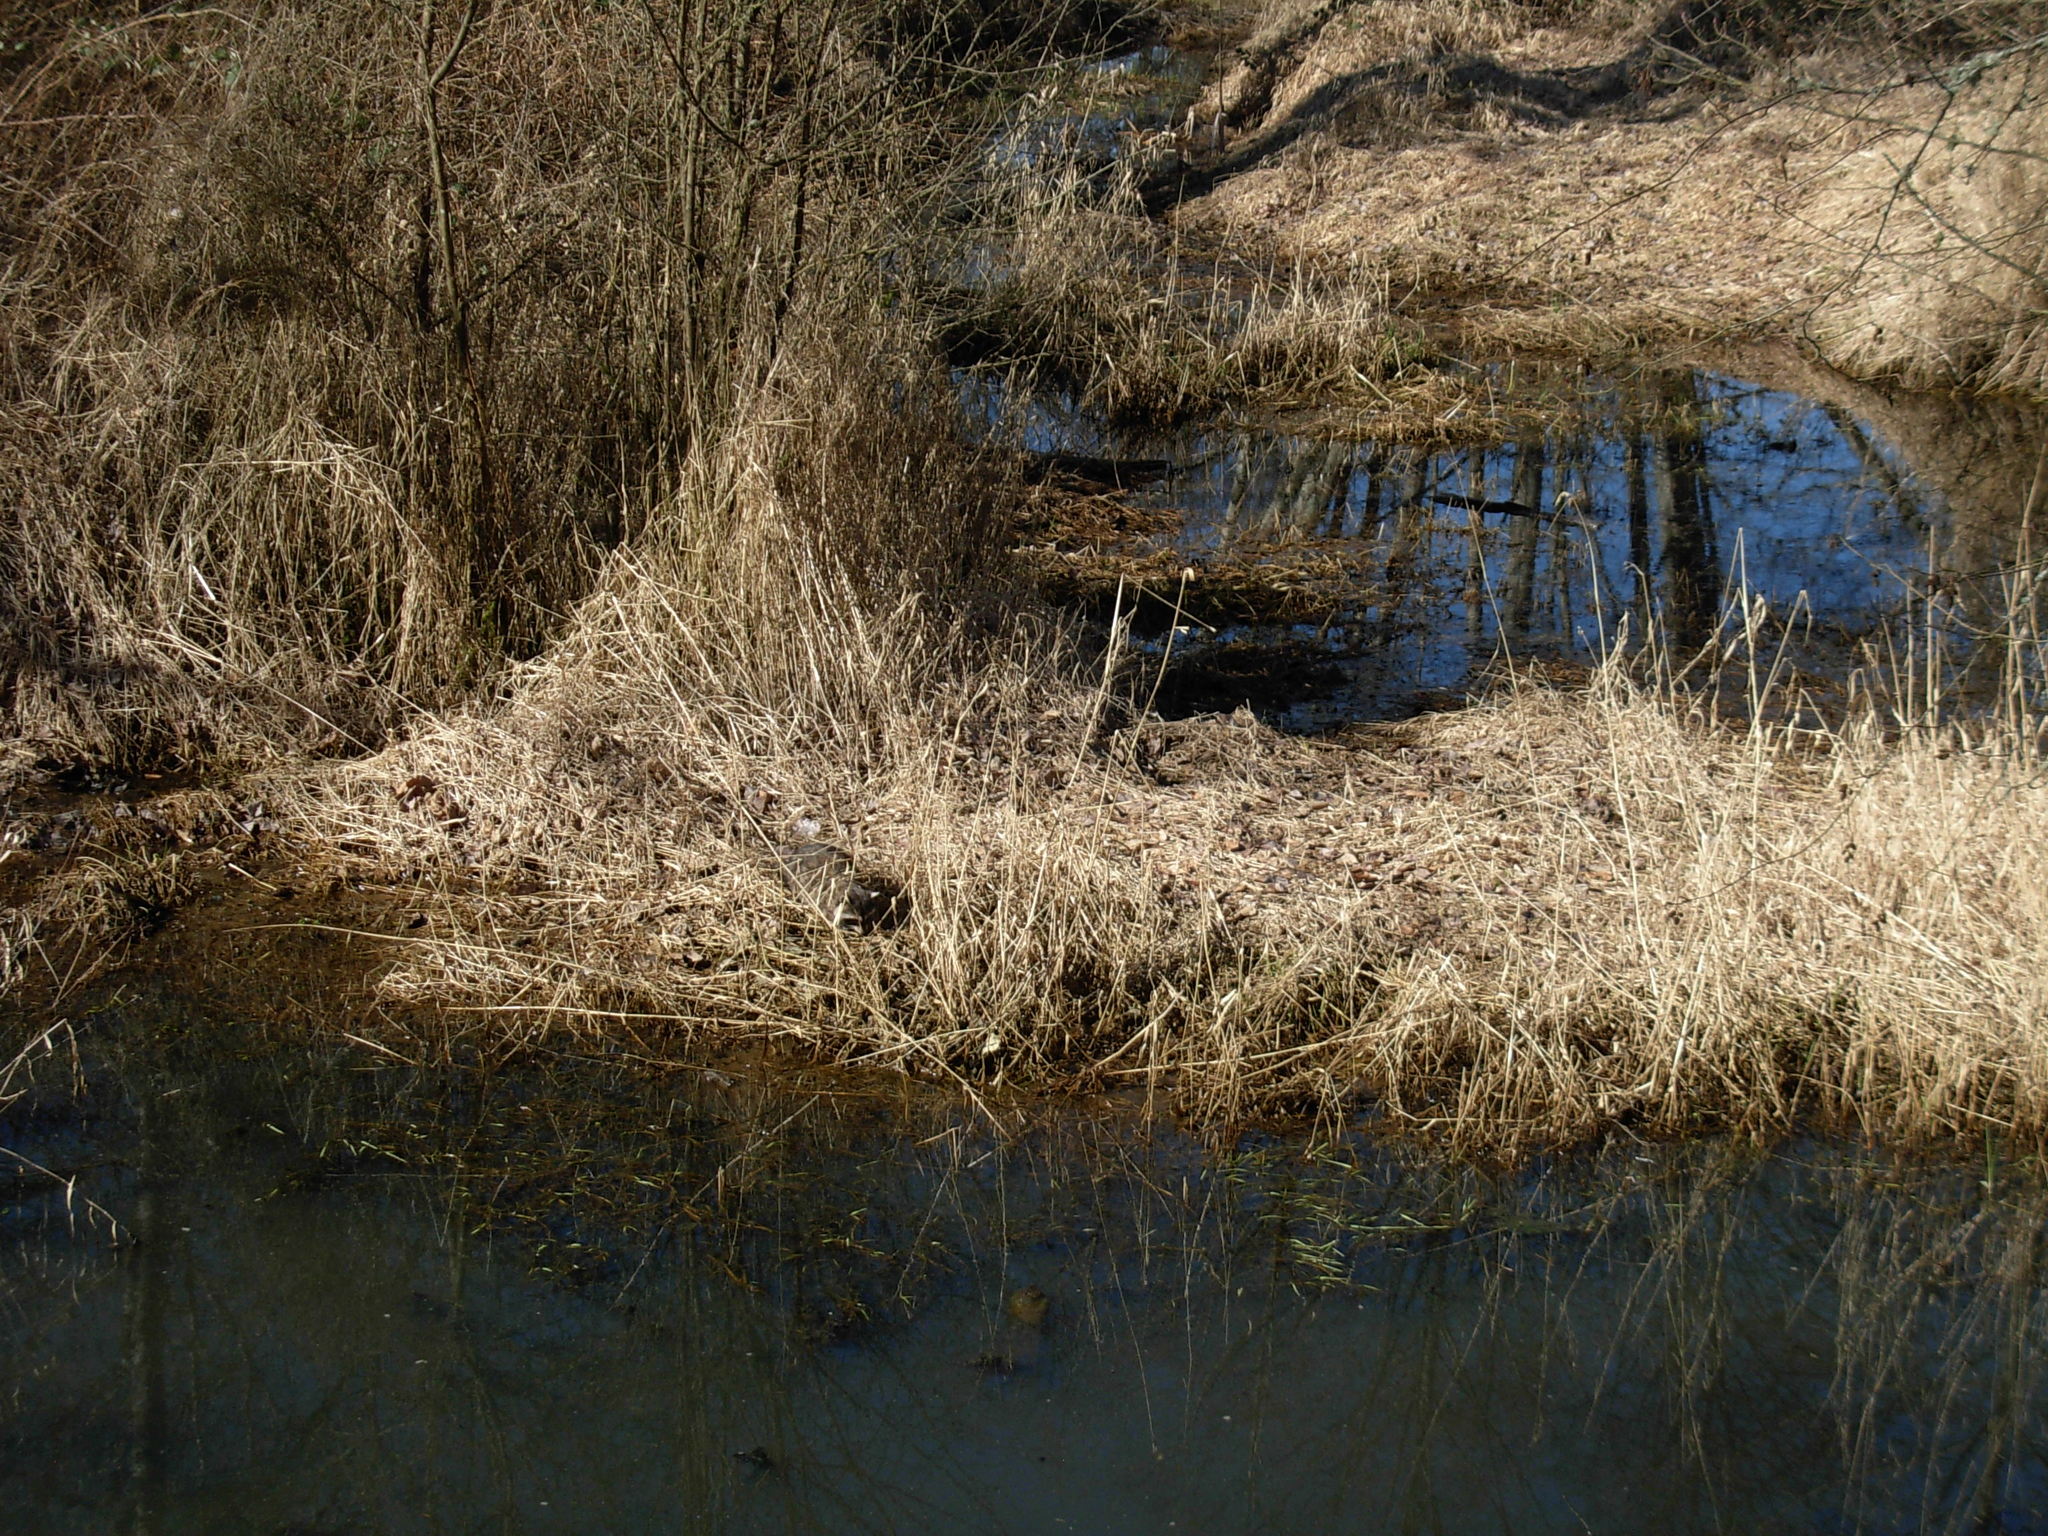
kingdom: Animalia
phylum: Chordata
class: Mammalia
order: Carnivora
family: Procyonidae
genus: Procyon
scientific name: Procyon lotor
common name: Raccoon
